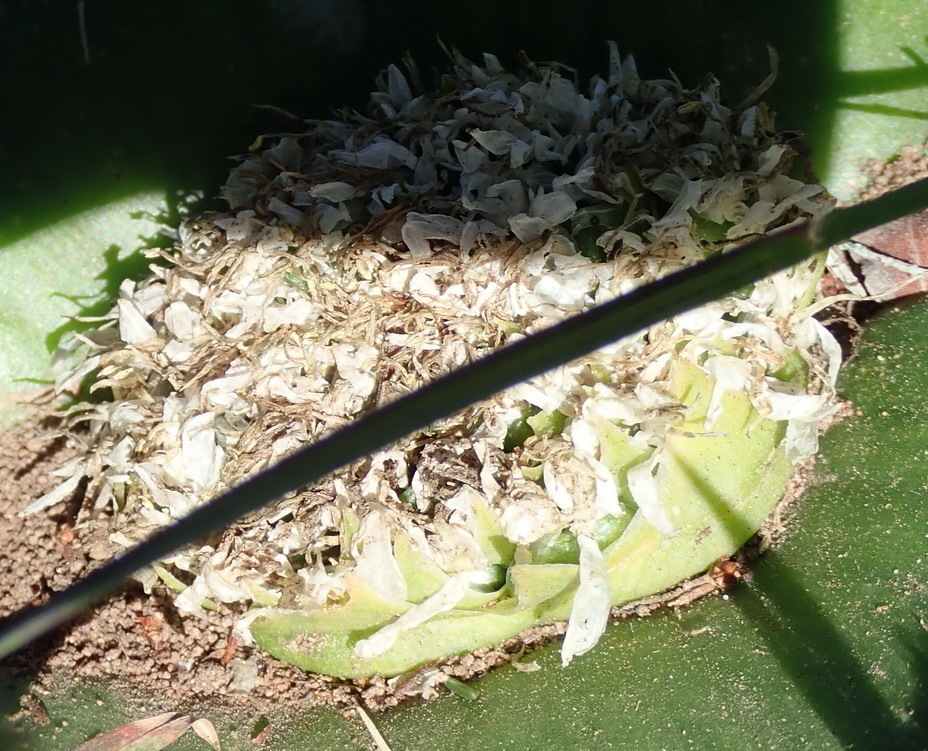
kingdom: Plantae
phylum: Tracheophyta
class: Liliopsida
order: Asparagales
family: Asparagaceae
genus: Massonia
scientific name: Massonia setulosa
